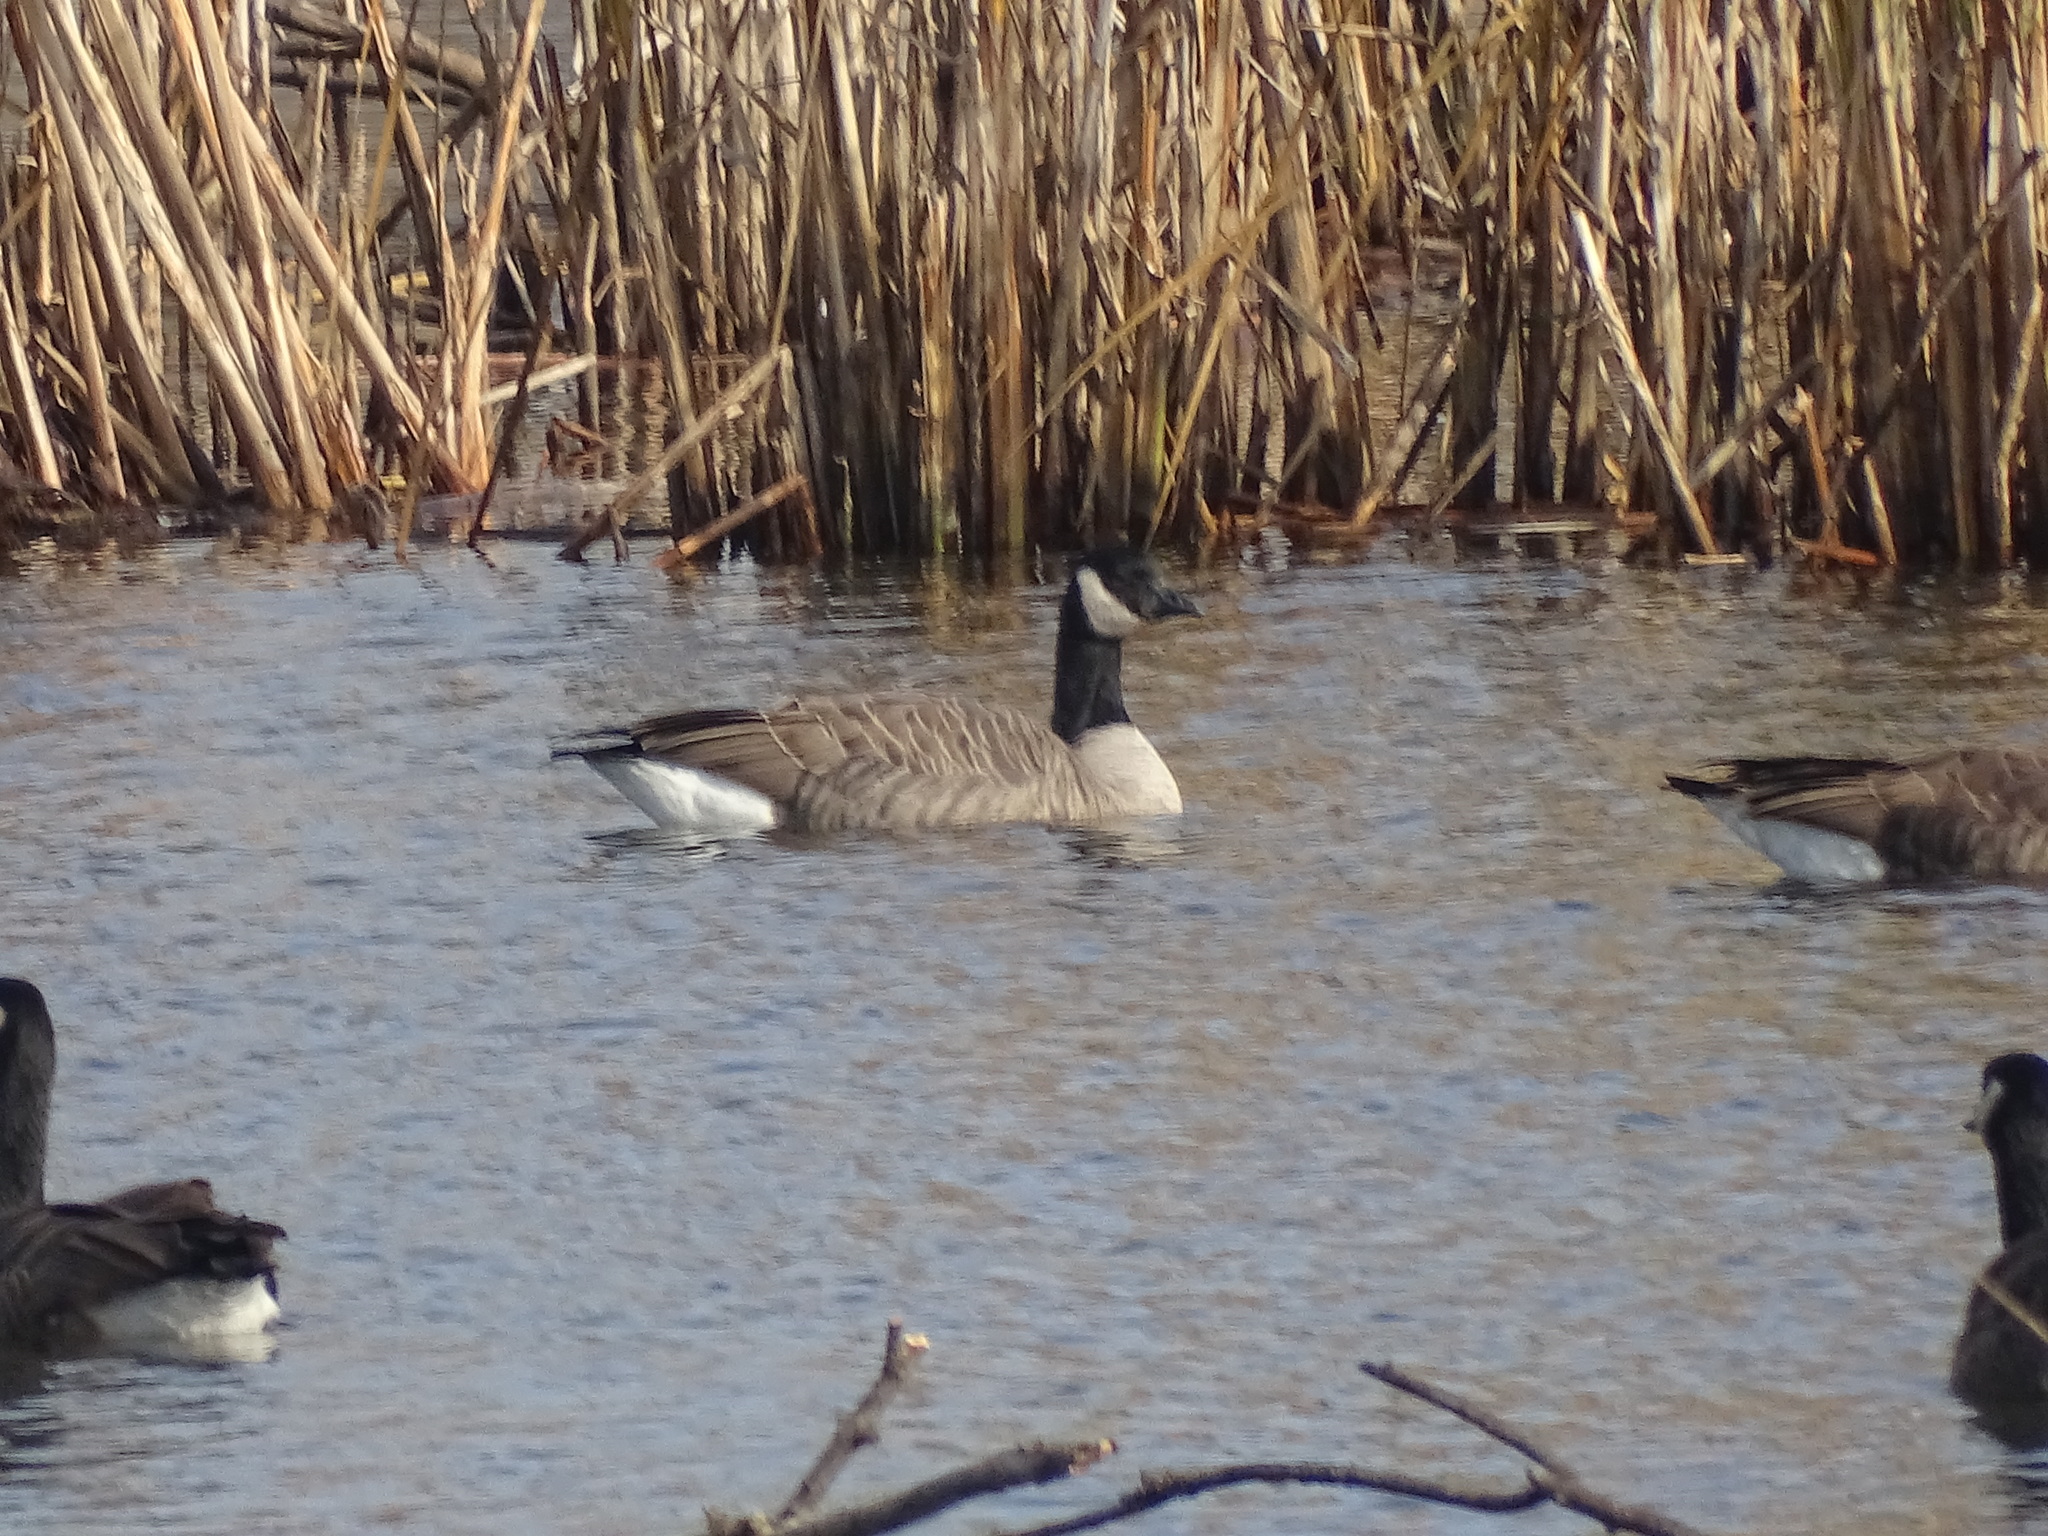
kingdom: Animalia
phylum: Chordata
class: Aves
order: Anseriformes
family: Anatidae
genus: Branta
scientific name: Branta canadensis
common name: Canada goose
